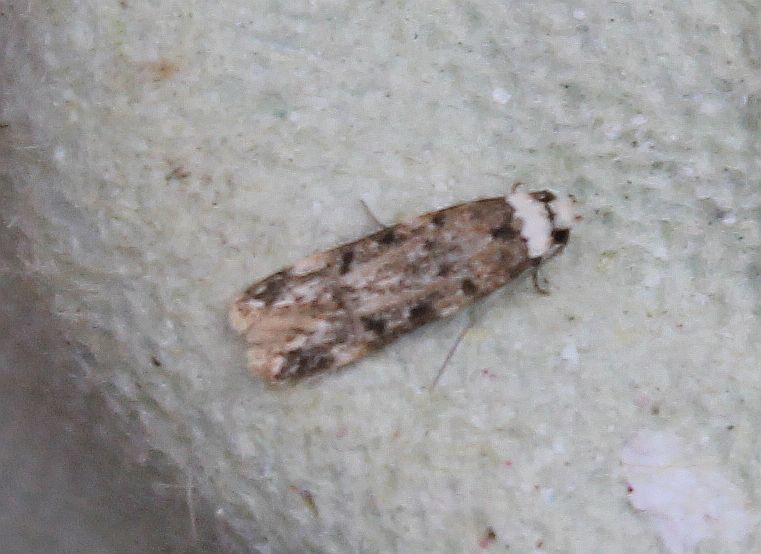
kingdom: Animalia
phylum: Arthropoda
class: Insecta
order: Lepidoptera
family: Oecophoridae
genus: Endrosis
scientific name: Endrosis sarcitrella
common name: White-shouldered house moth
